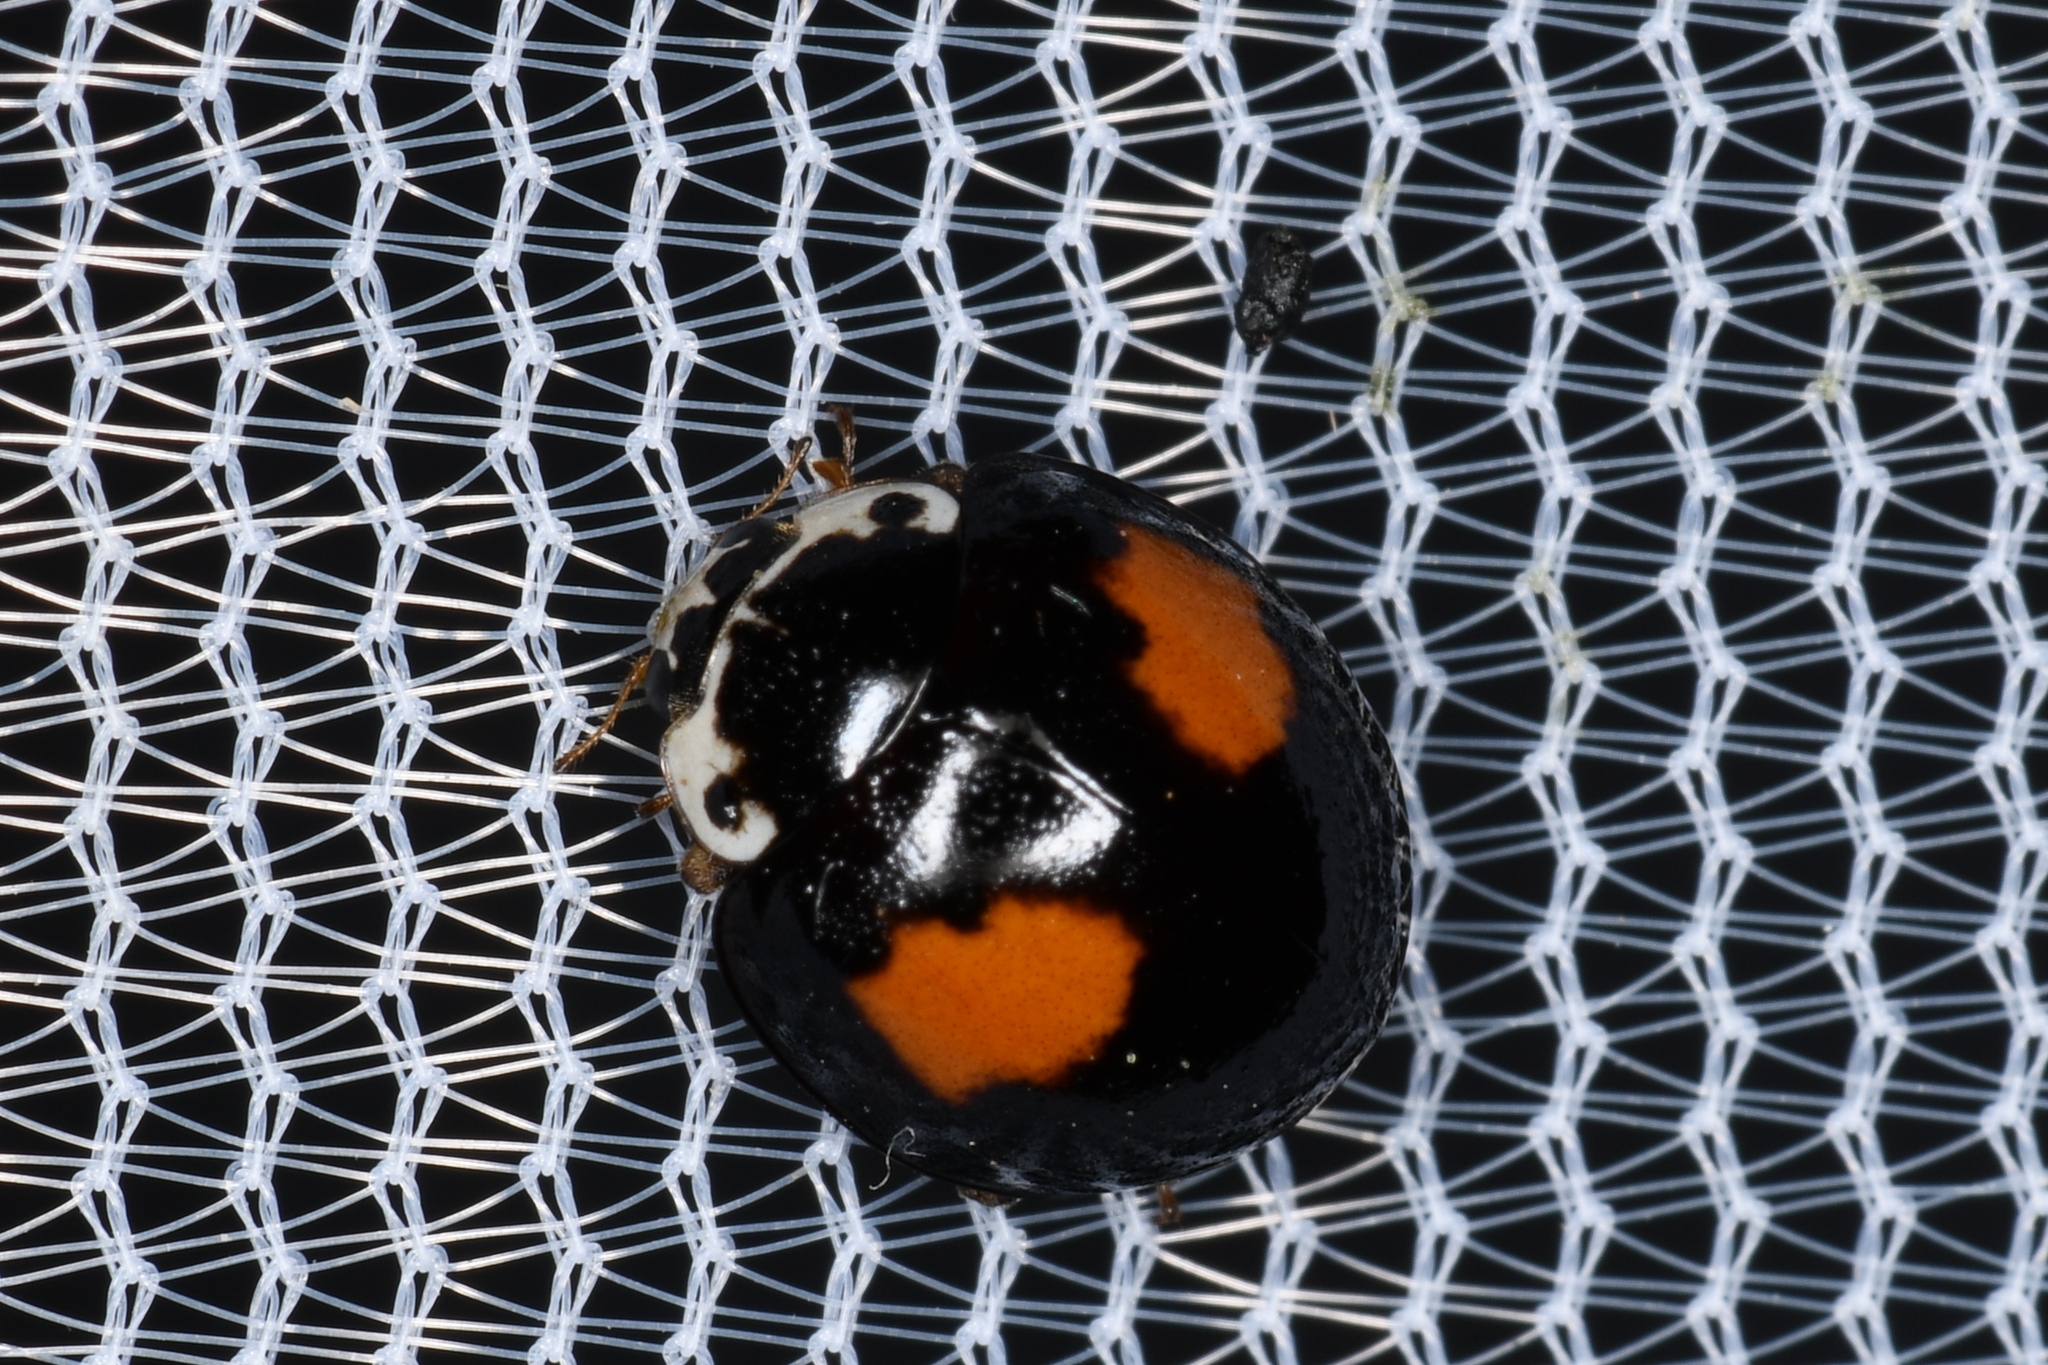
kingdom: Animalia
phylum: Arthropoda
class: Insecta
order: Coleoptera
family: Coccinellidae
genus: Olla
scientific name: Olla v-nigrum
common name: Ashy gray lady beetle
